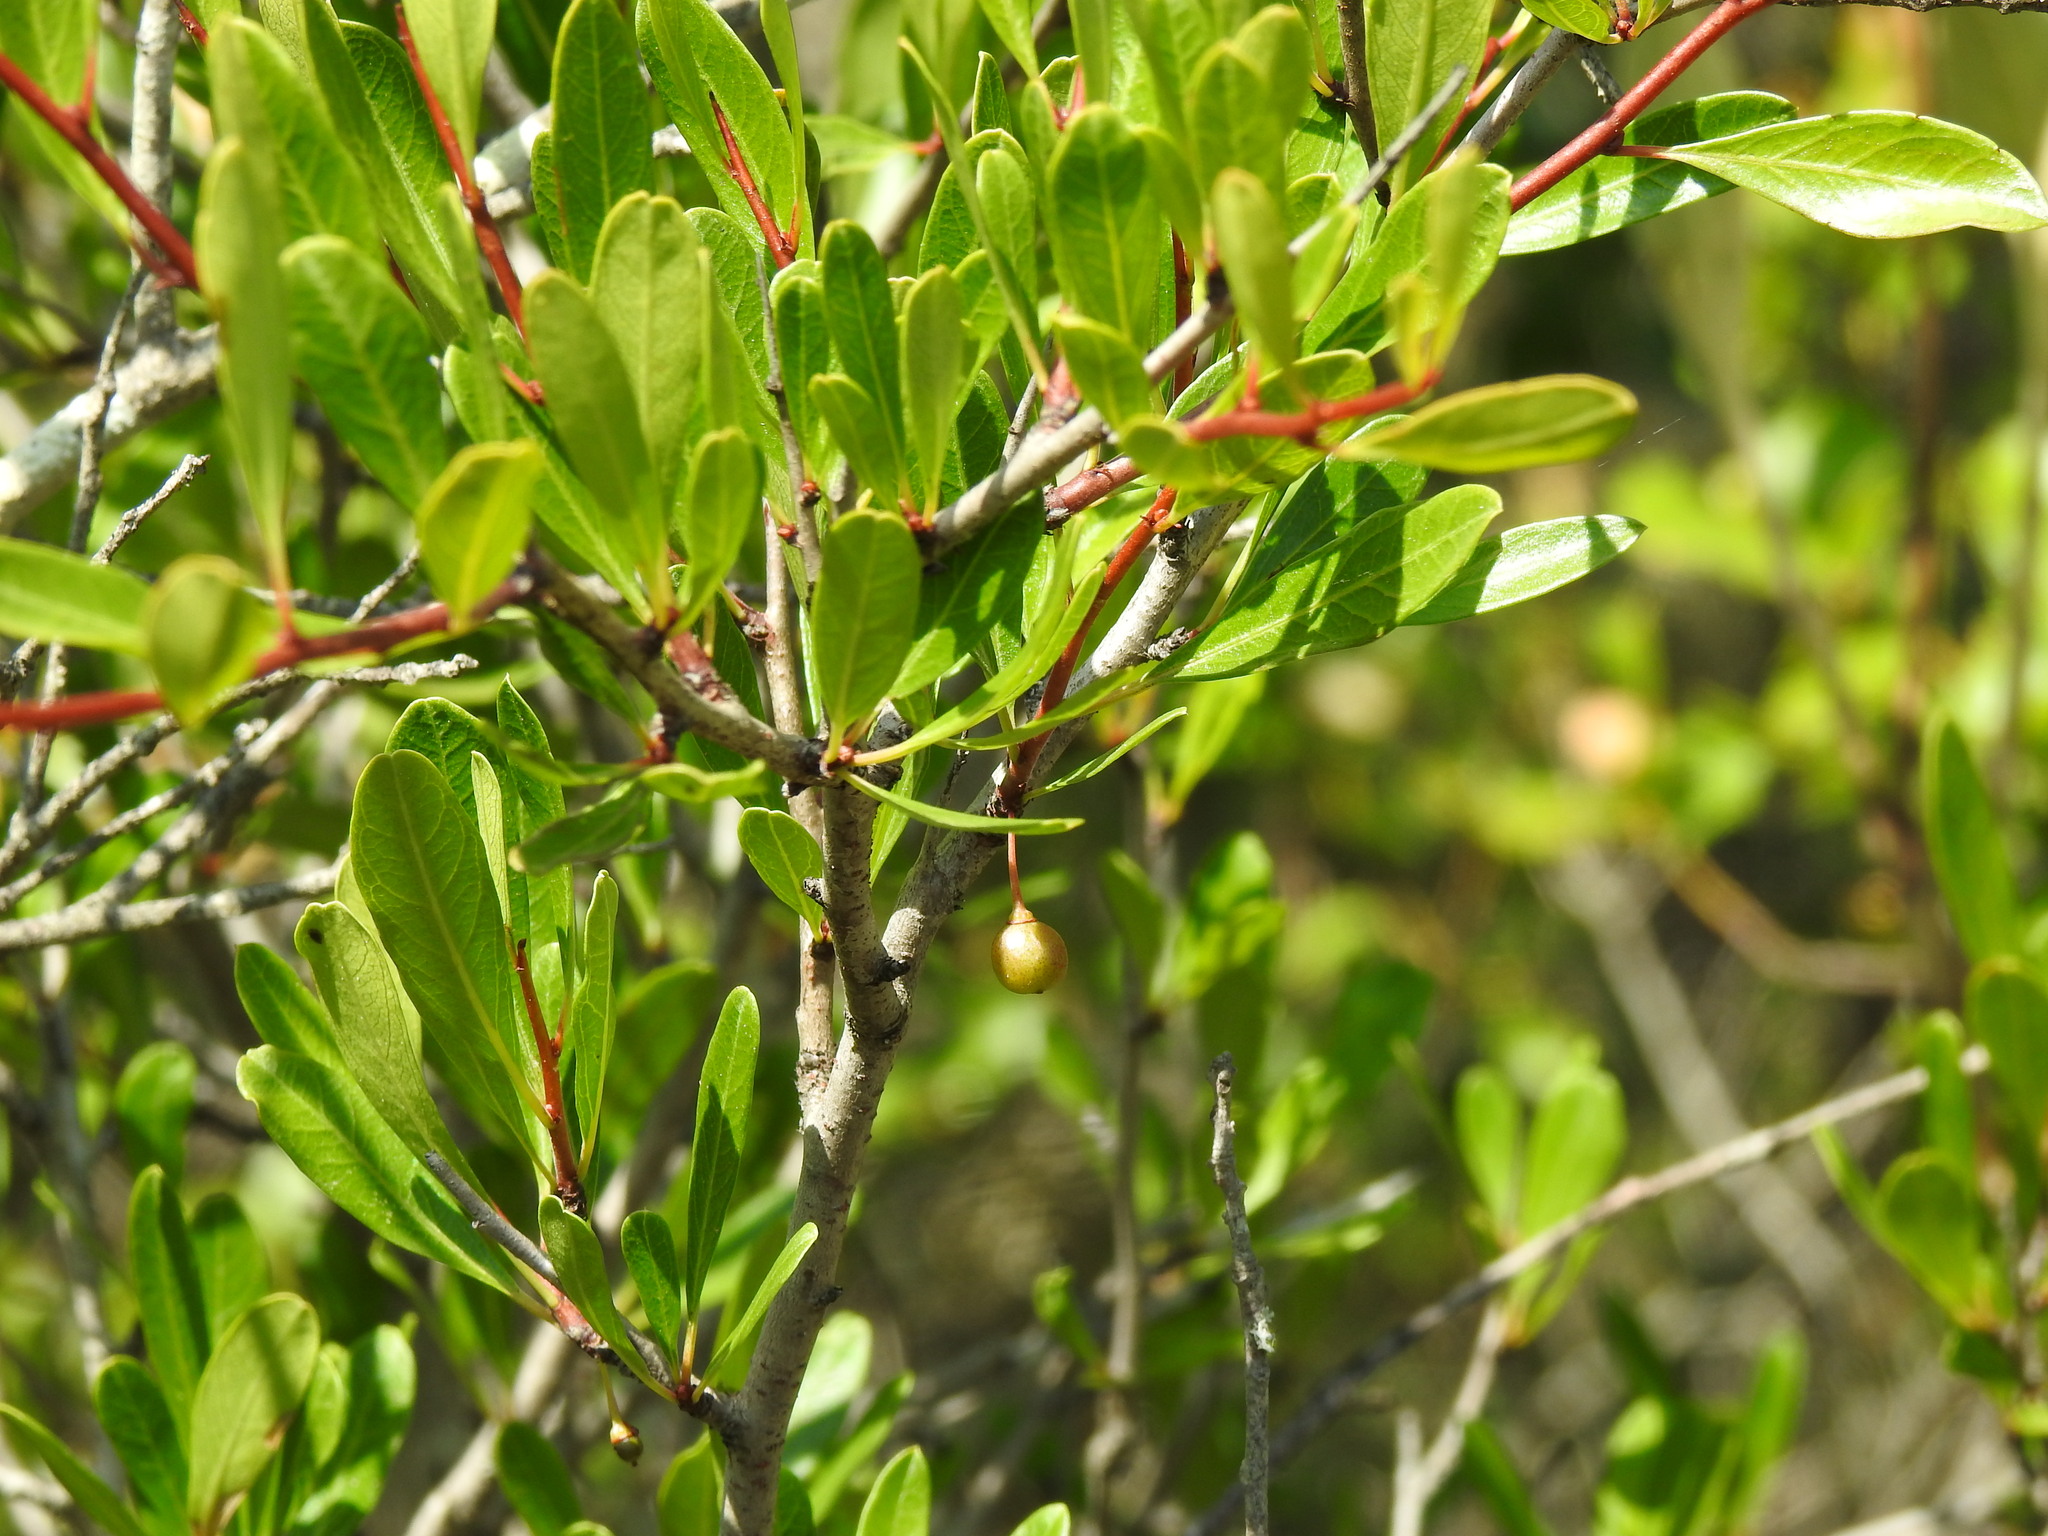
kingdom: Plantae
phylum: Tracheophyta
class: Magnoliopsida
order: Rosales
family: Rhamnaceae
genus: Rhamnus
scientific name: Rhamnus oleoides
